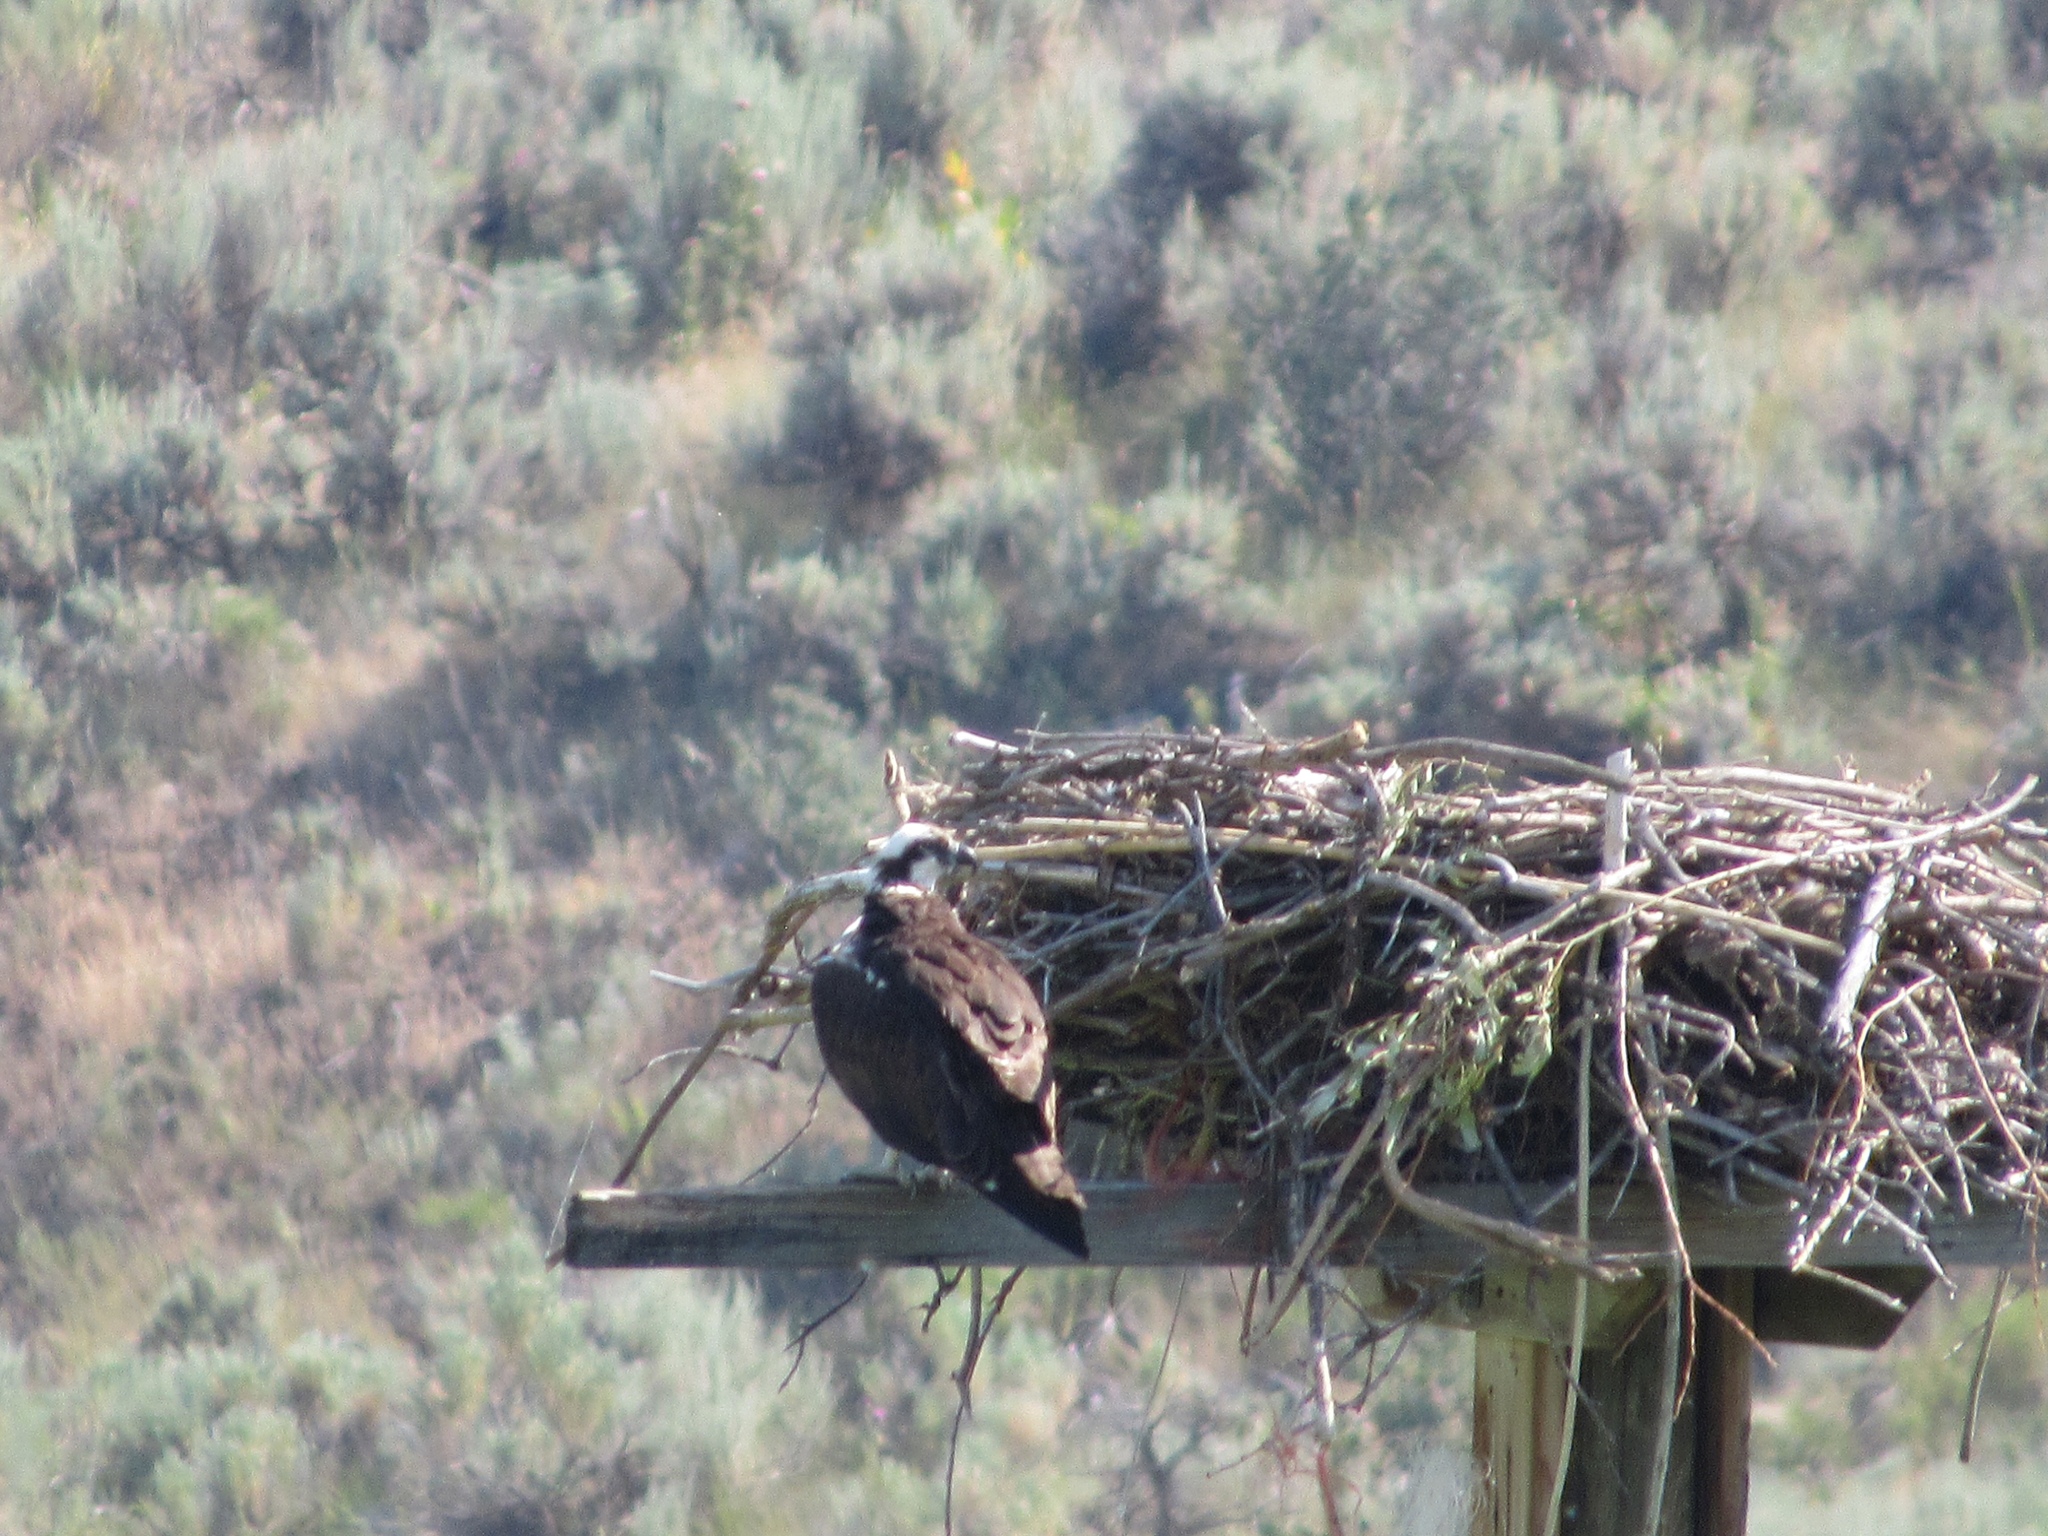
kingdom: Animalia
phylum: Chordata
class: Aves
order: Accipitriformes
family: Pandionidae
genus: Pandion
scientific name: Pandion haliaetus
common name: Osprey
